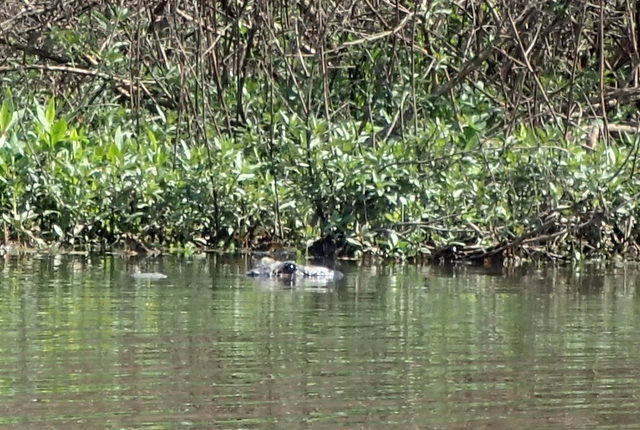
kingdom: Animalia
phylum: Chordata
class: Crocodylia
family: Alligatoridae
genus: Alligator
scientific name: Alligator mississippiensis
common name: American alligator
